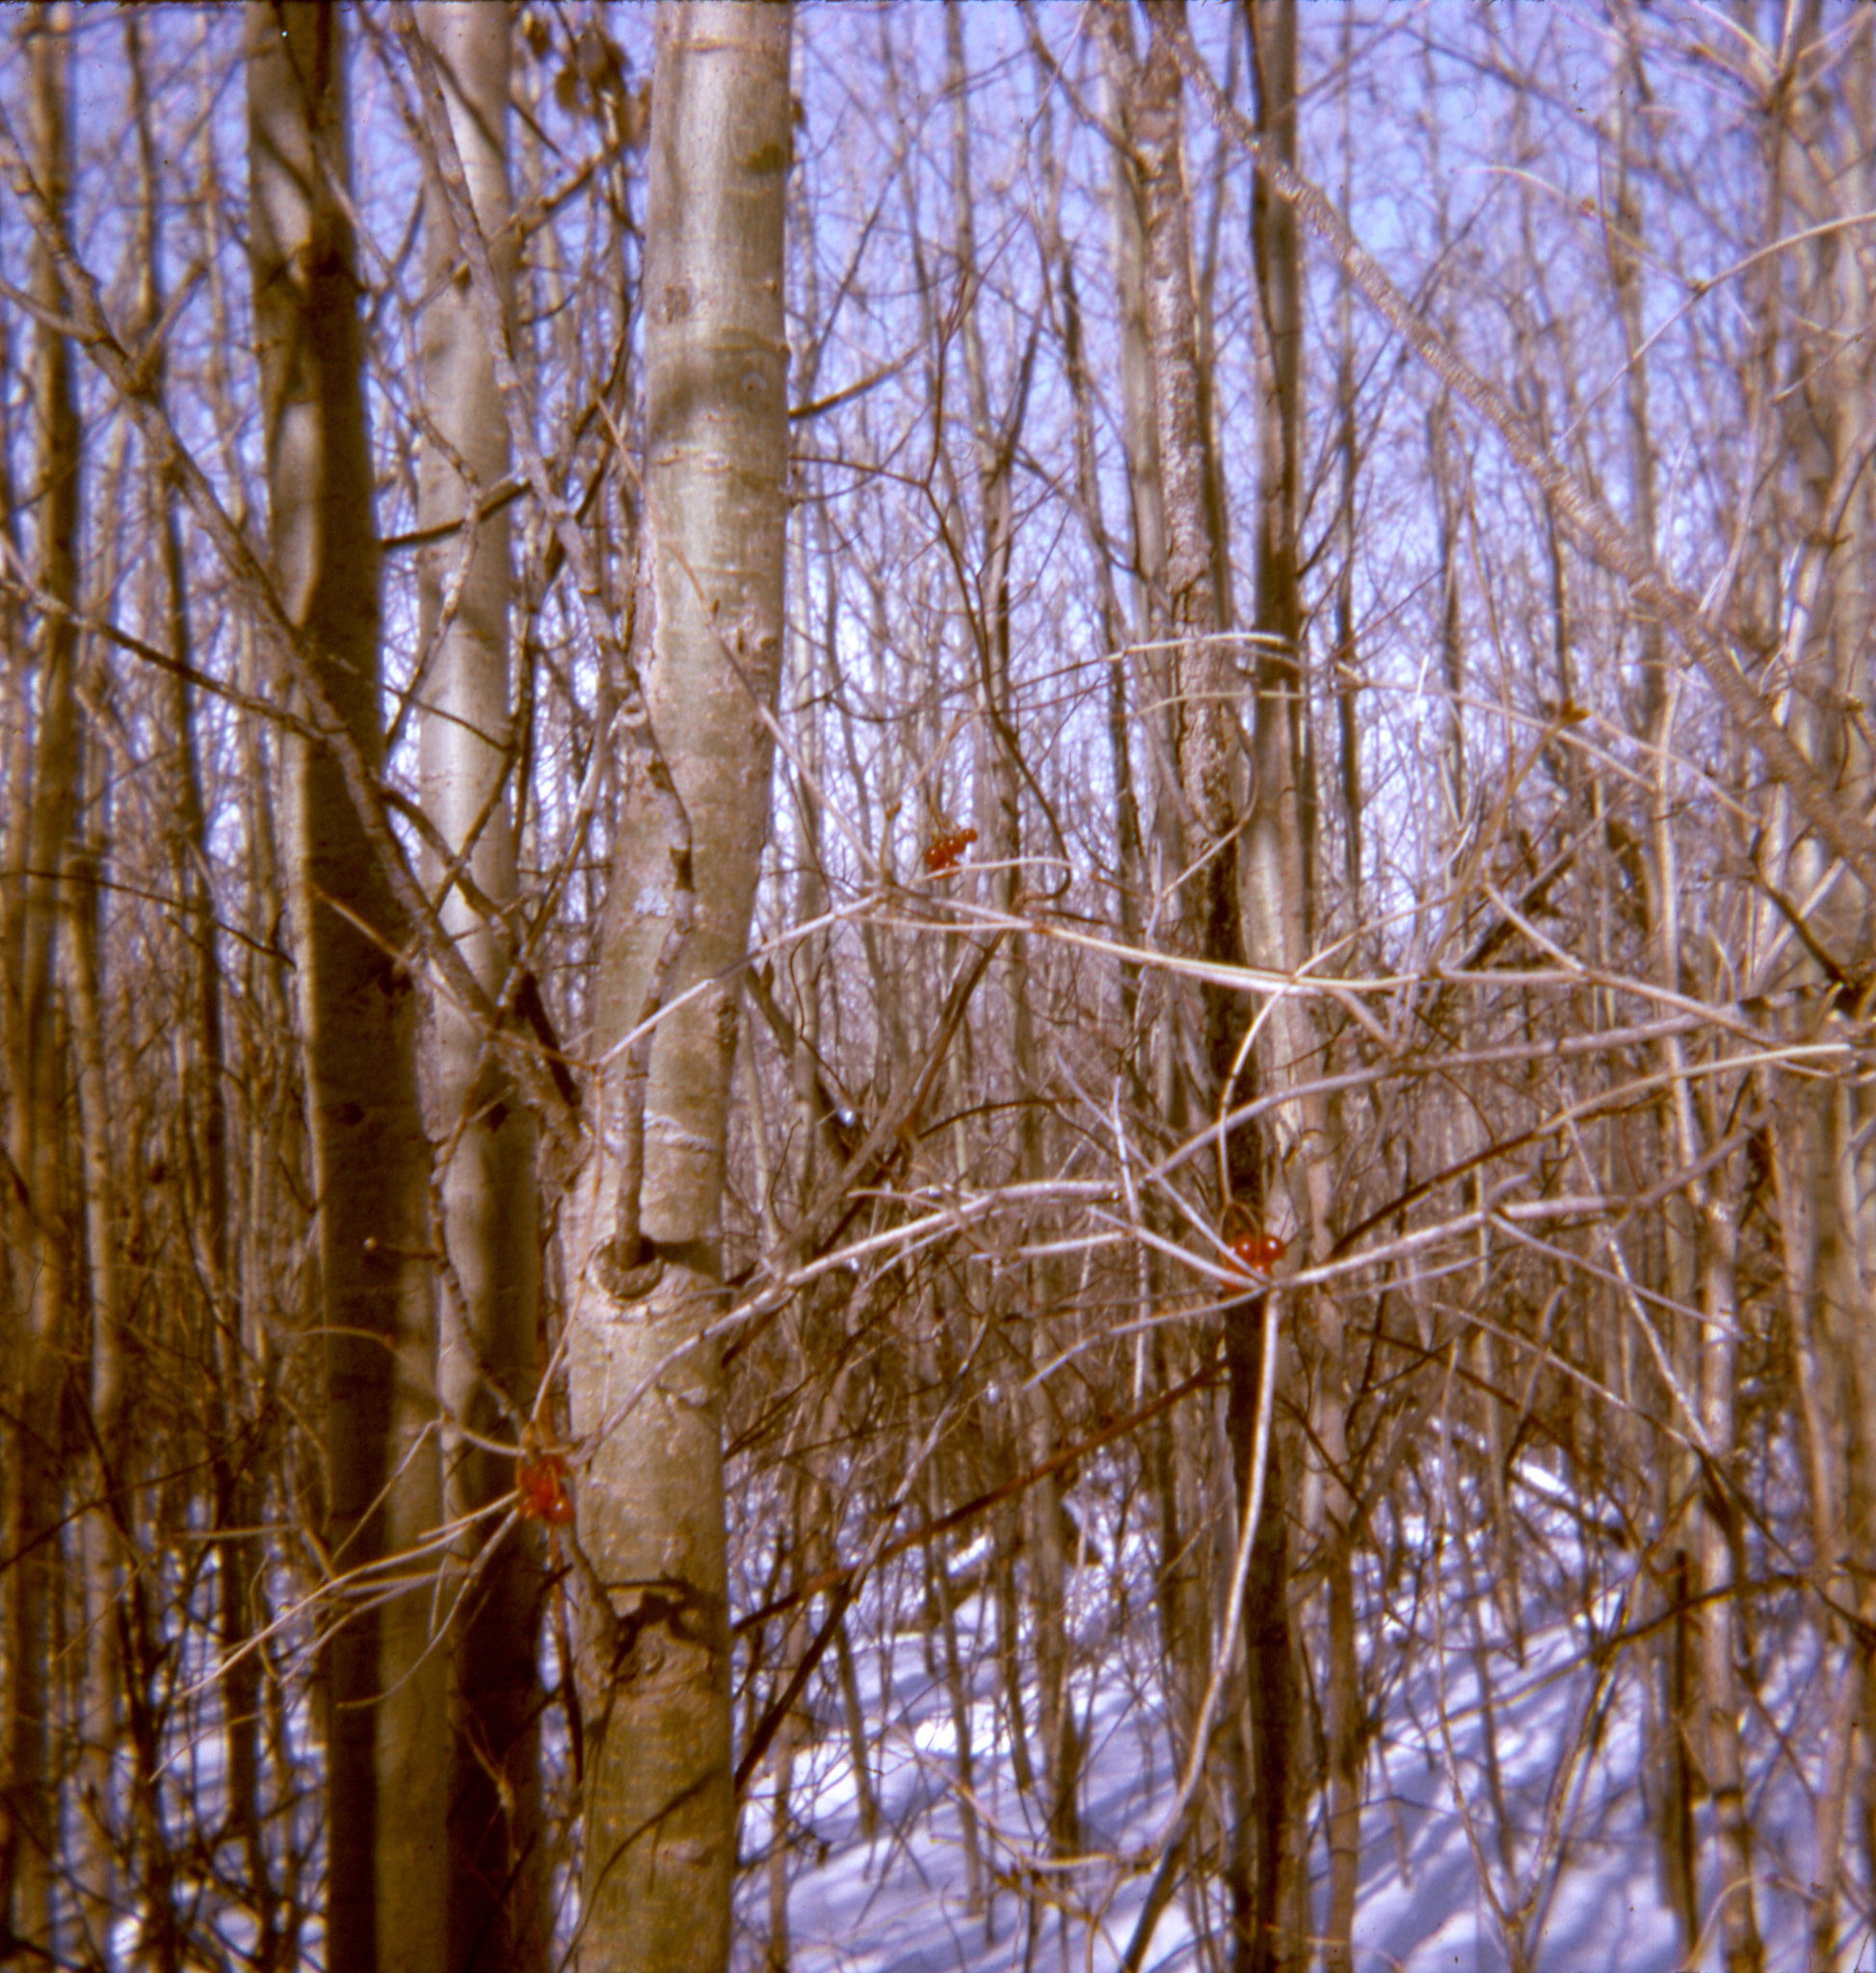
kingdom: Plantae
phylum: Tracheophyta
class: Magnoliopsida
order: Dipsacales
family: Viburnaceae
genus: Viburnum
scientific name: Viburnum opulus
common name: Guelder-rose
